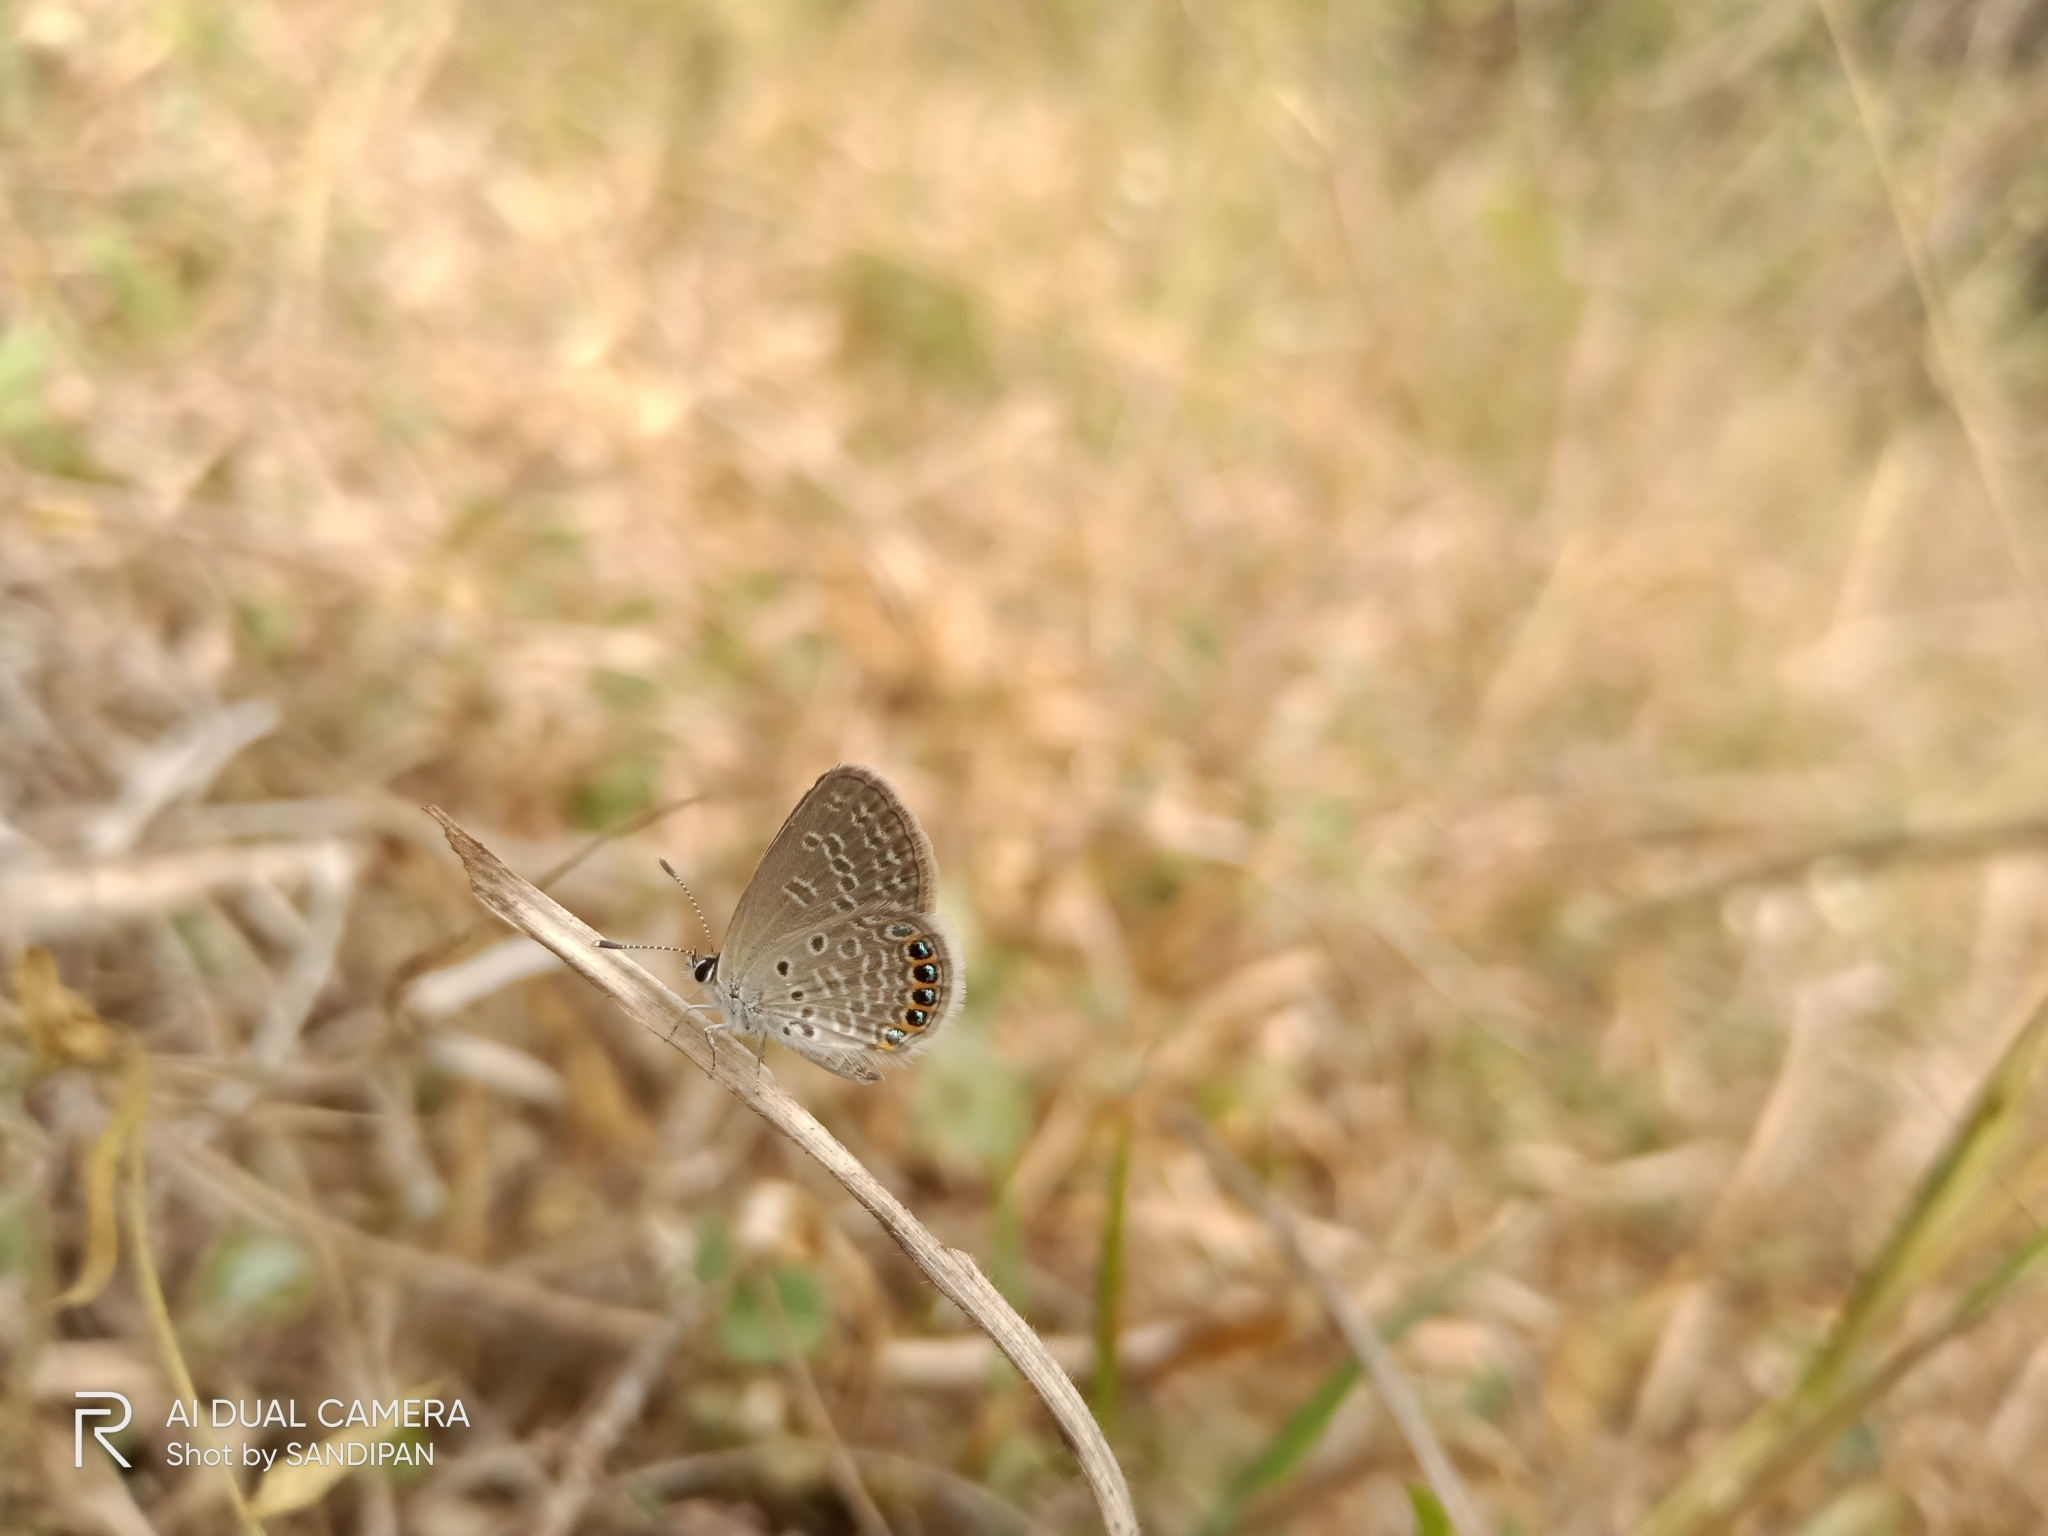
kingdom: Animalia
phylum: Arthropoda
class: Insecta
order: Lepidoptera
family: Lycaenidae
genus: Freyeria
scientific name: Freyeria putli
